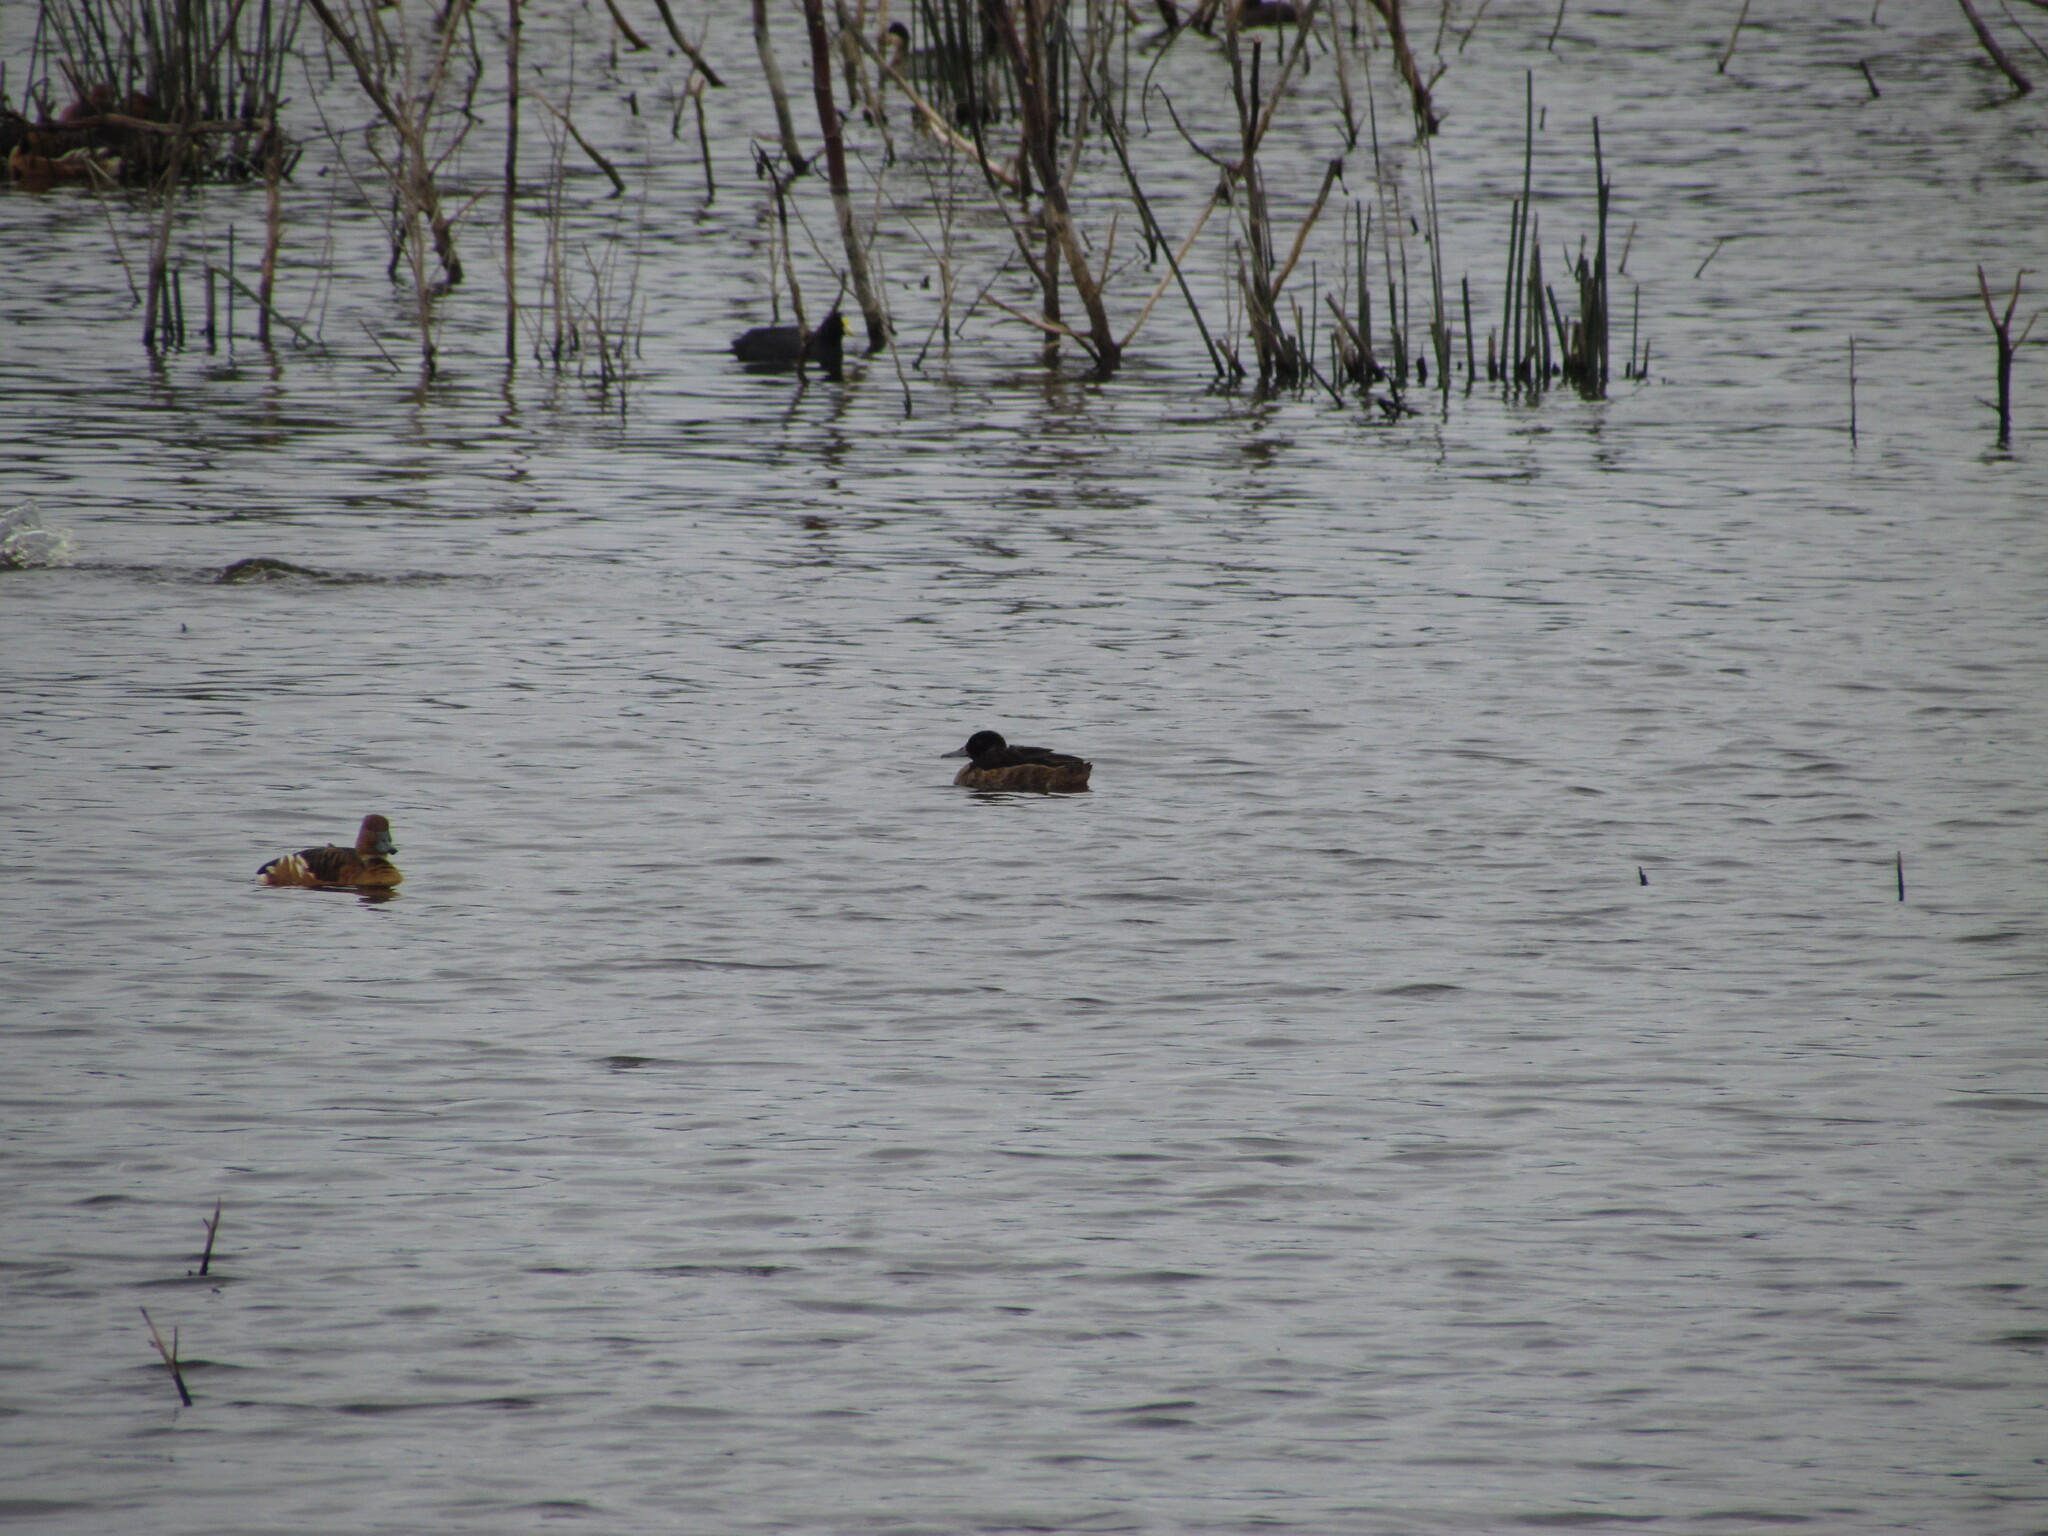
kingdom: Animalia
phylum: Chordata
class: Aves
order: Anseriformes
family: Anatidae
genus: Heteronetta
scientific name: Heteronetta atricapilla
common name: Black-headed duck
